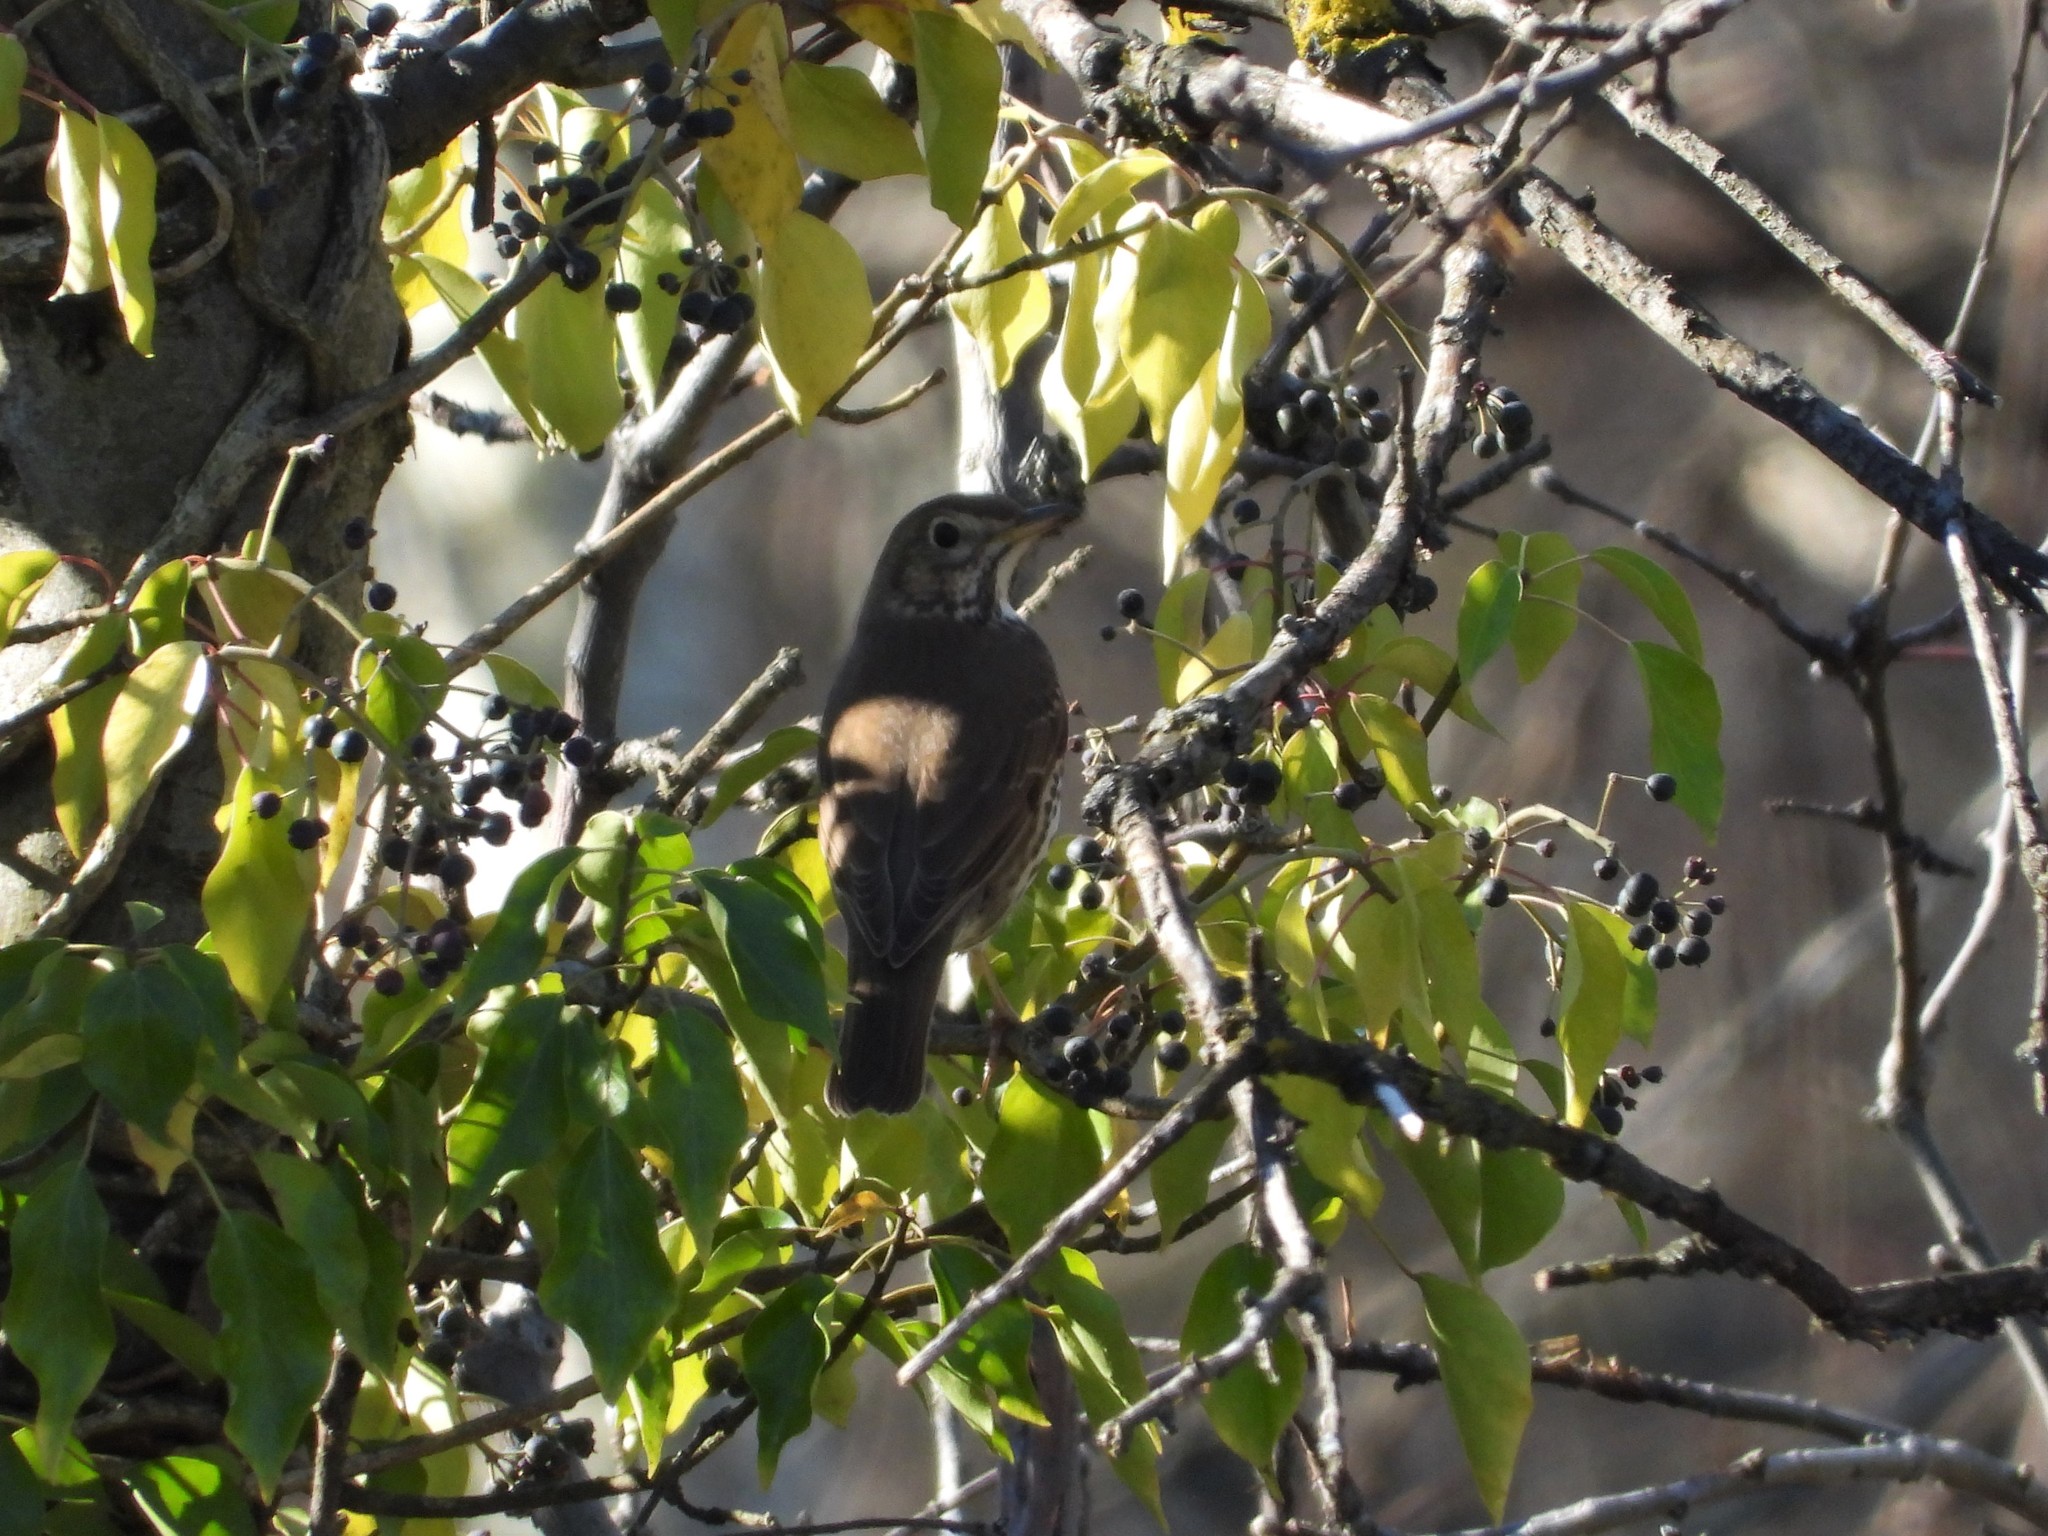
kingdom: Animalia
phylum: Chordata
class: Aves
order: Passeriformes
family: Turdidae
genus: Turdus
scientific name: Turdus philomelos
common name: Song thrush
